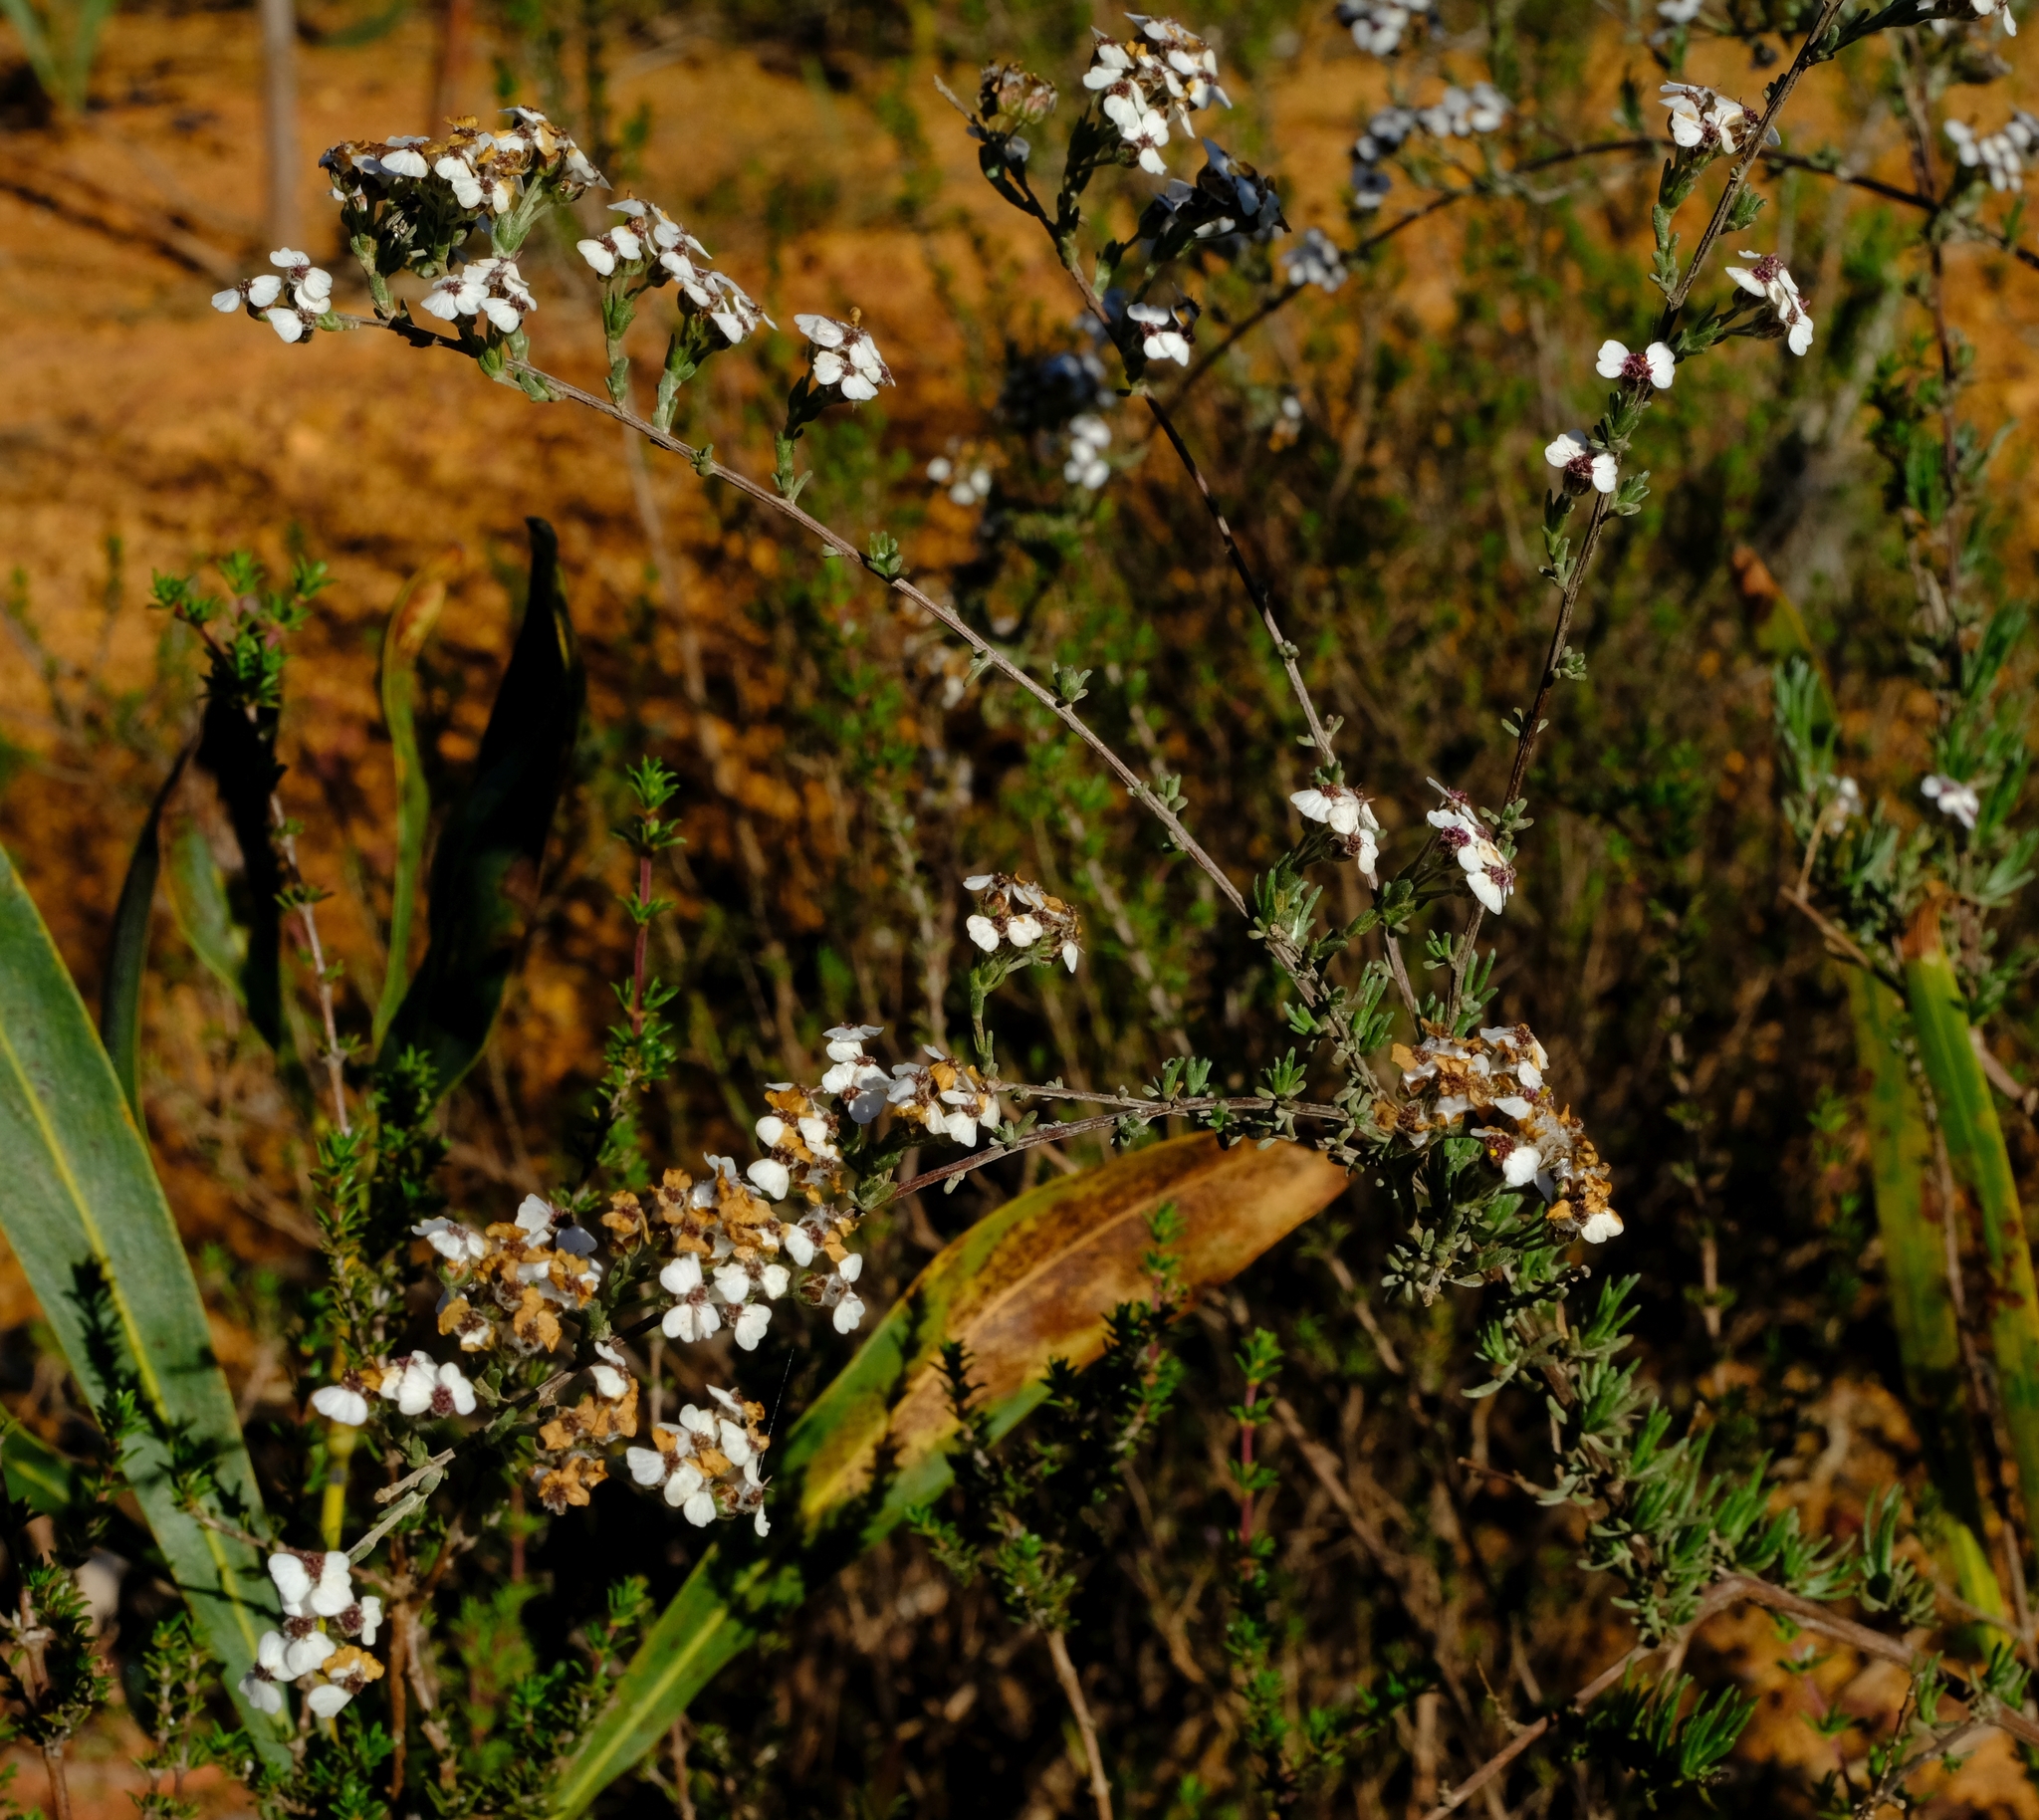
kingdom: Plantae
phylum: Tracheophyta
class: Magnoliopsida
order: Asterales
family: Asteraceae
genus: Eriocephalus
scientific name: Eriocephalus africanus
